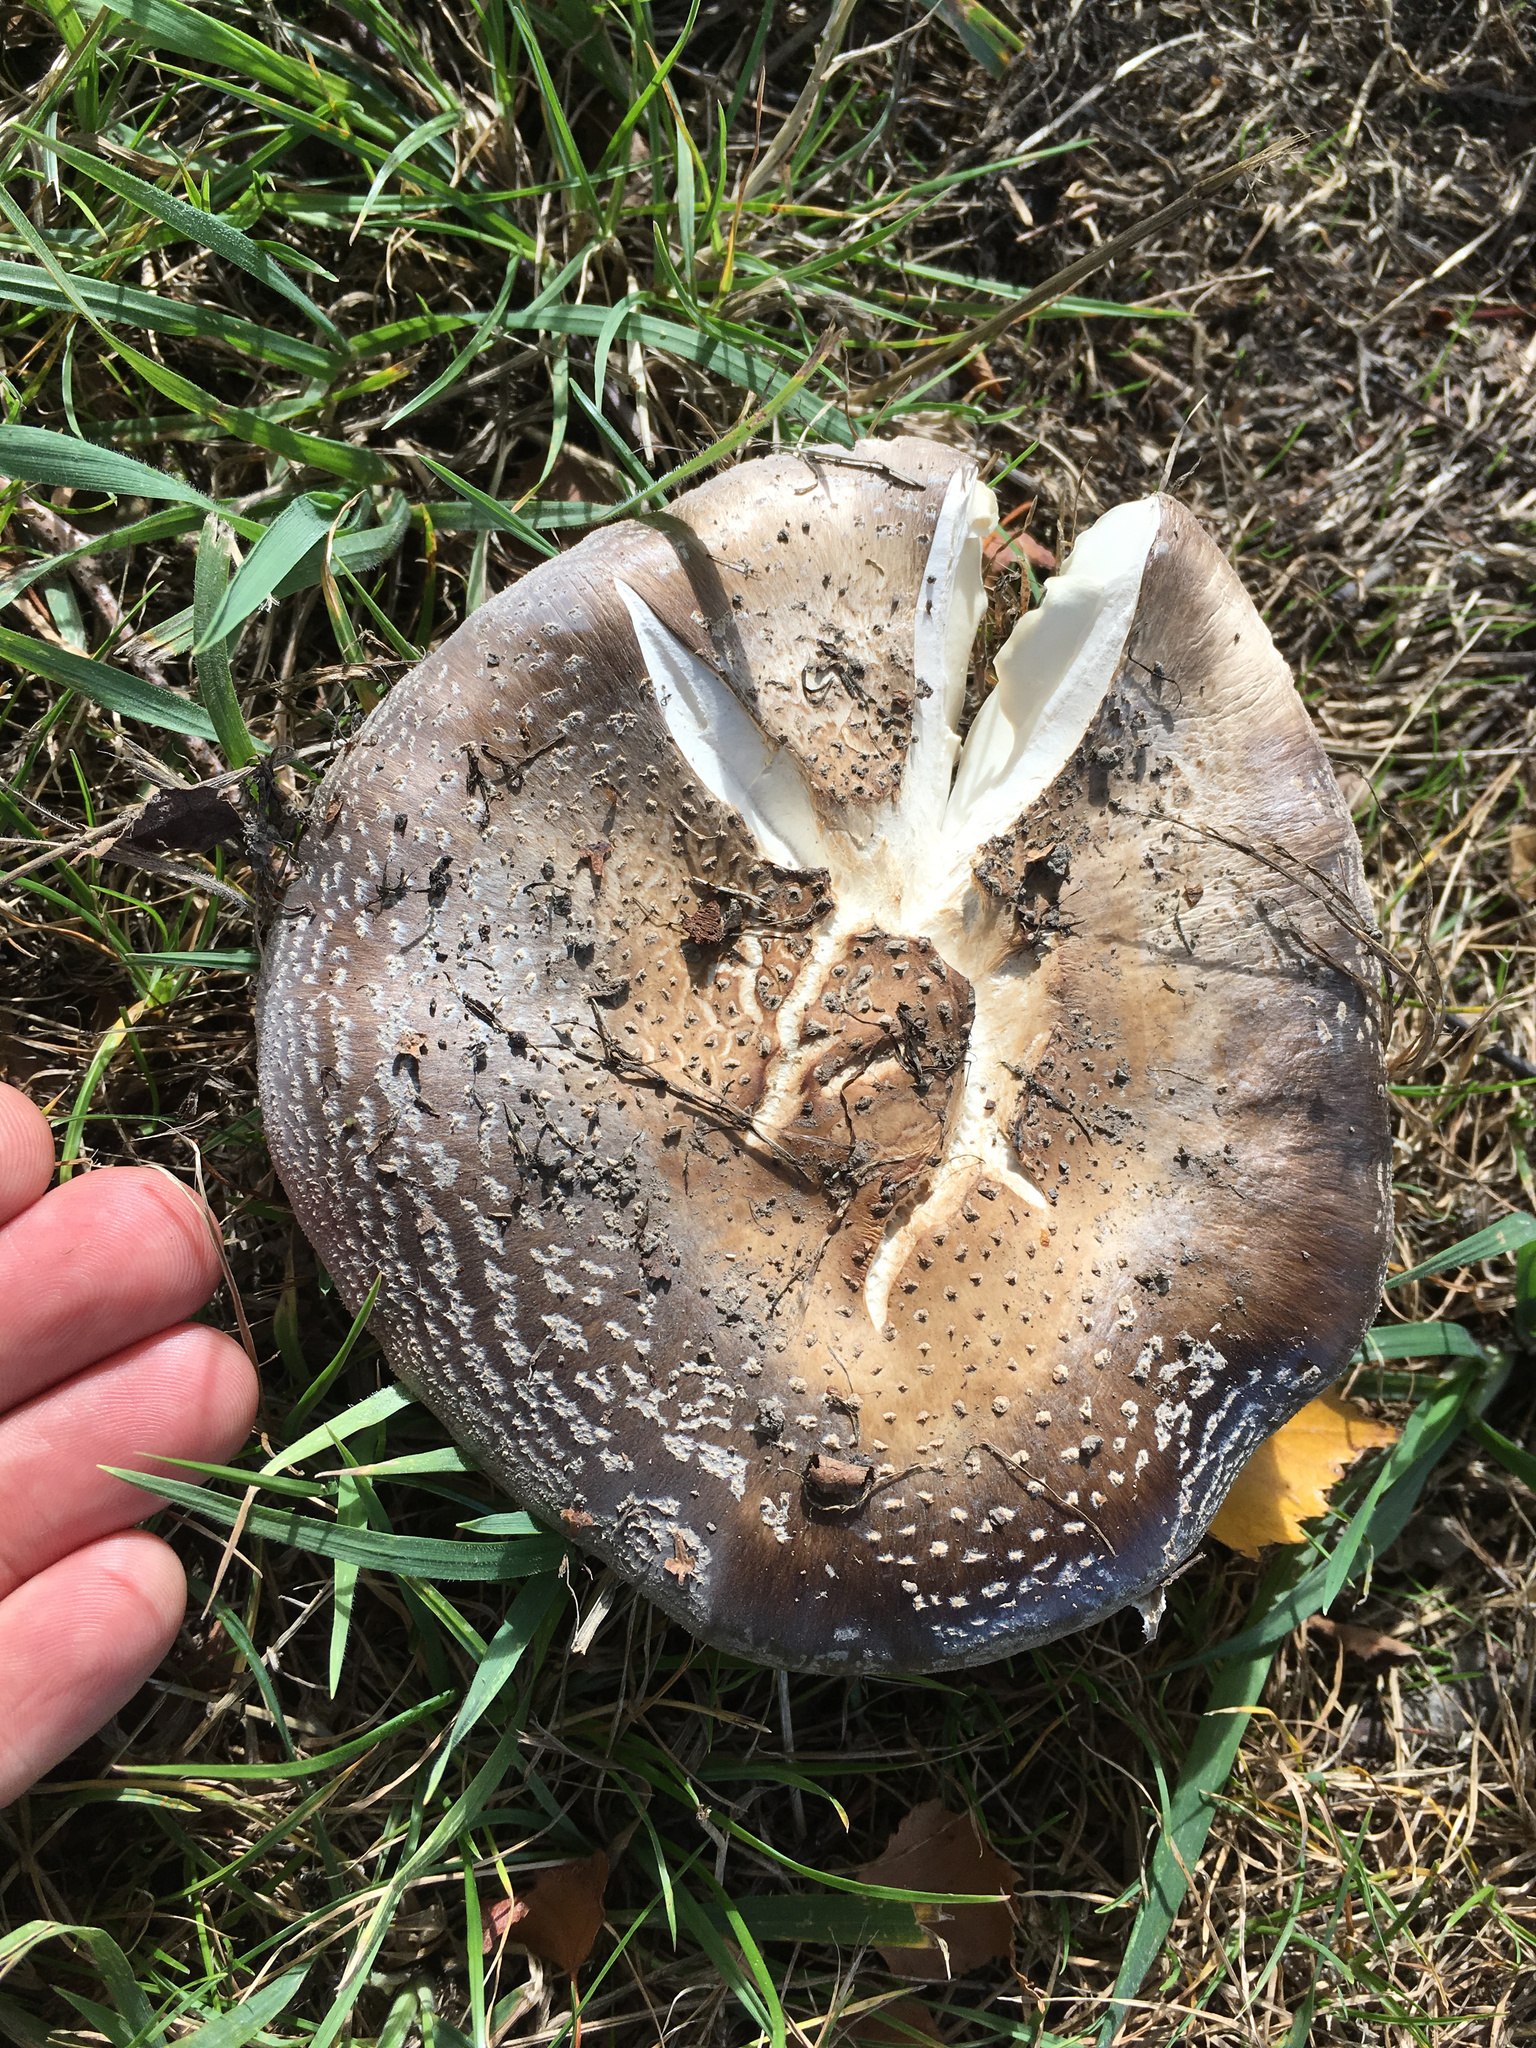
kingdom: Fungi
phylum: Basidiomycota
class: Agaricomycetes
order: Agaricales
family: Amanitaceae
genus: Amanita
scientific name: Amanita excelsa
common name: European false blusher
